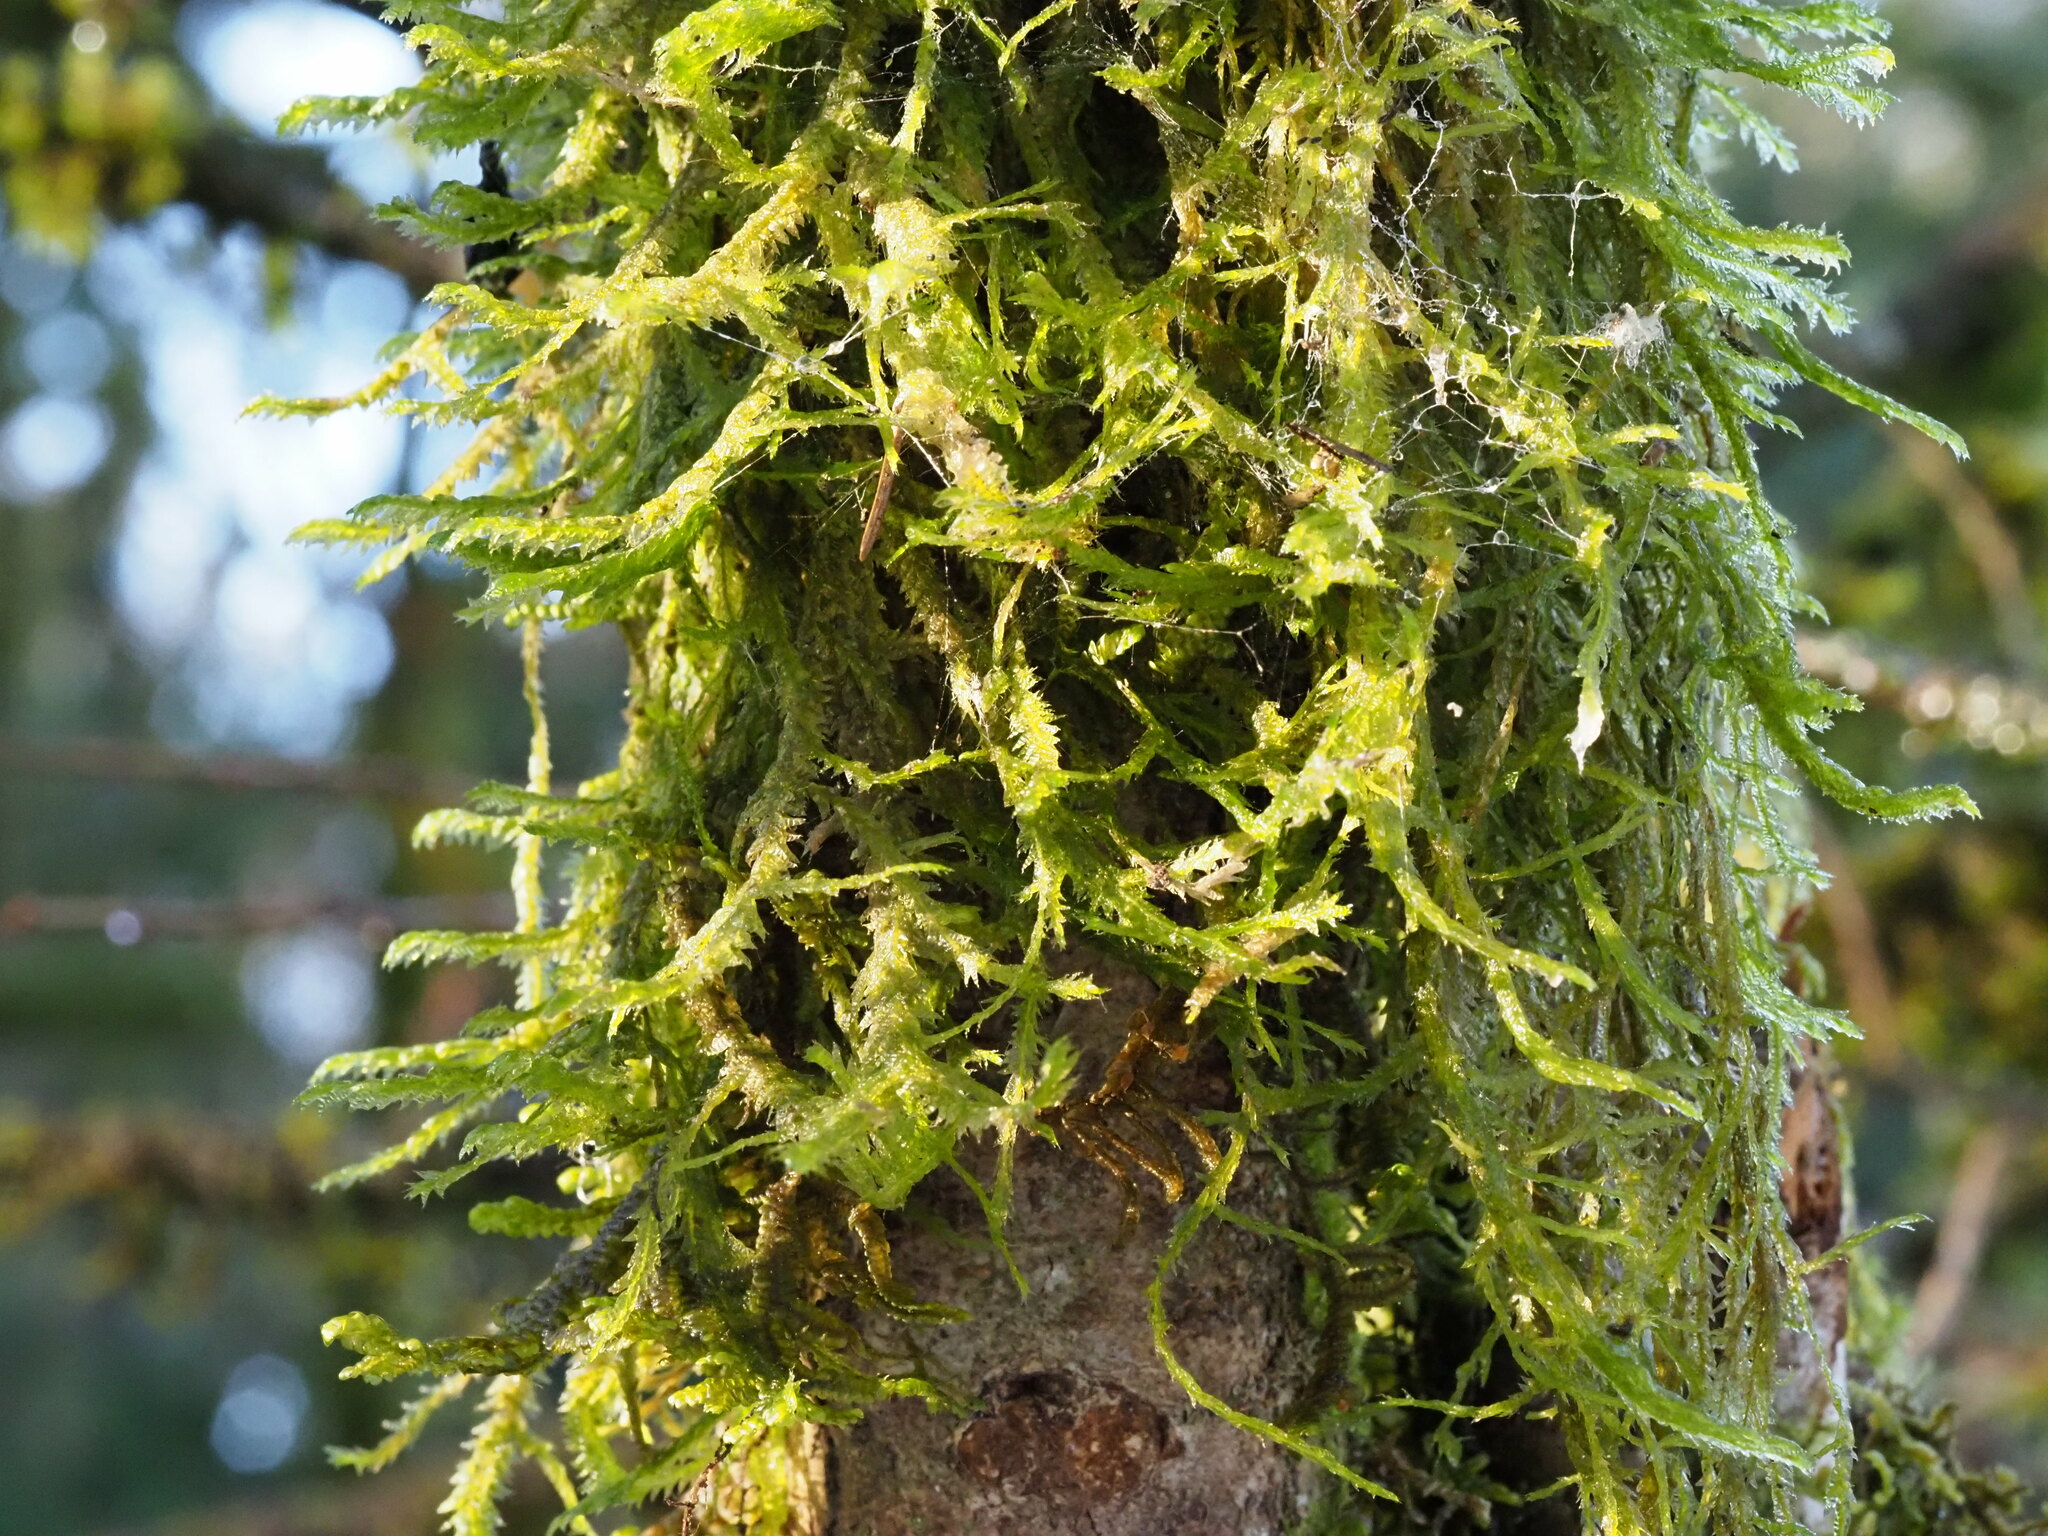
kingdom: Plantae
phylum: Bryophyta
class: Bryopsida
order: Hypnales
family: Neckeraceae
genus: Neckera
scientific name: Neckera douglasii
